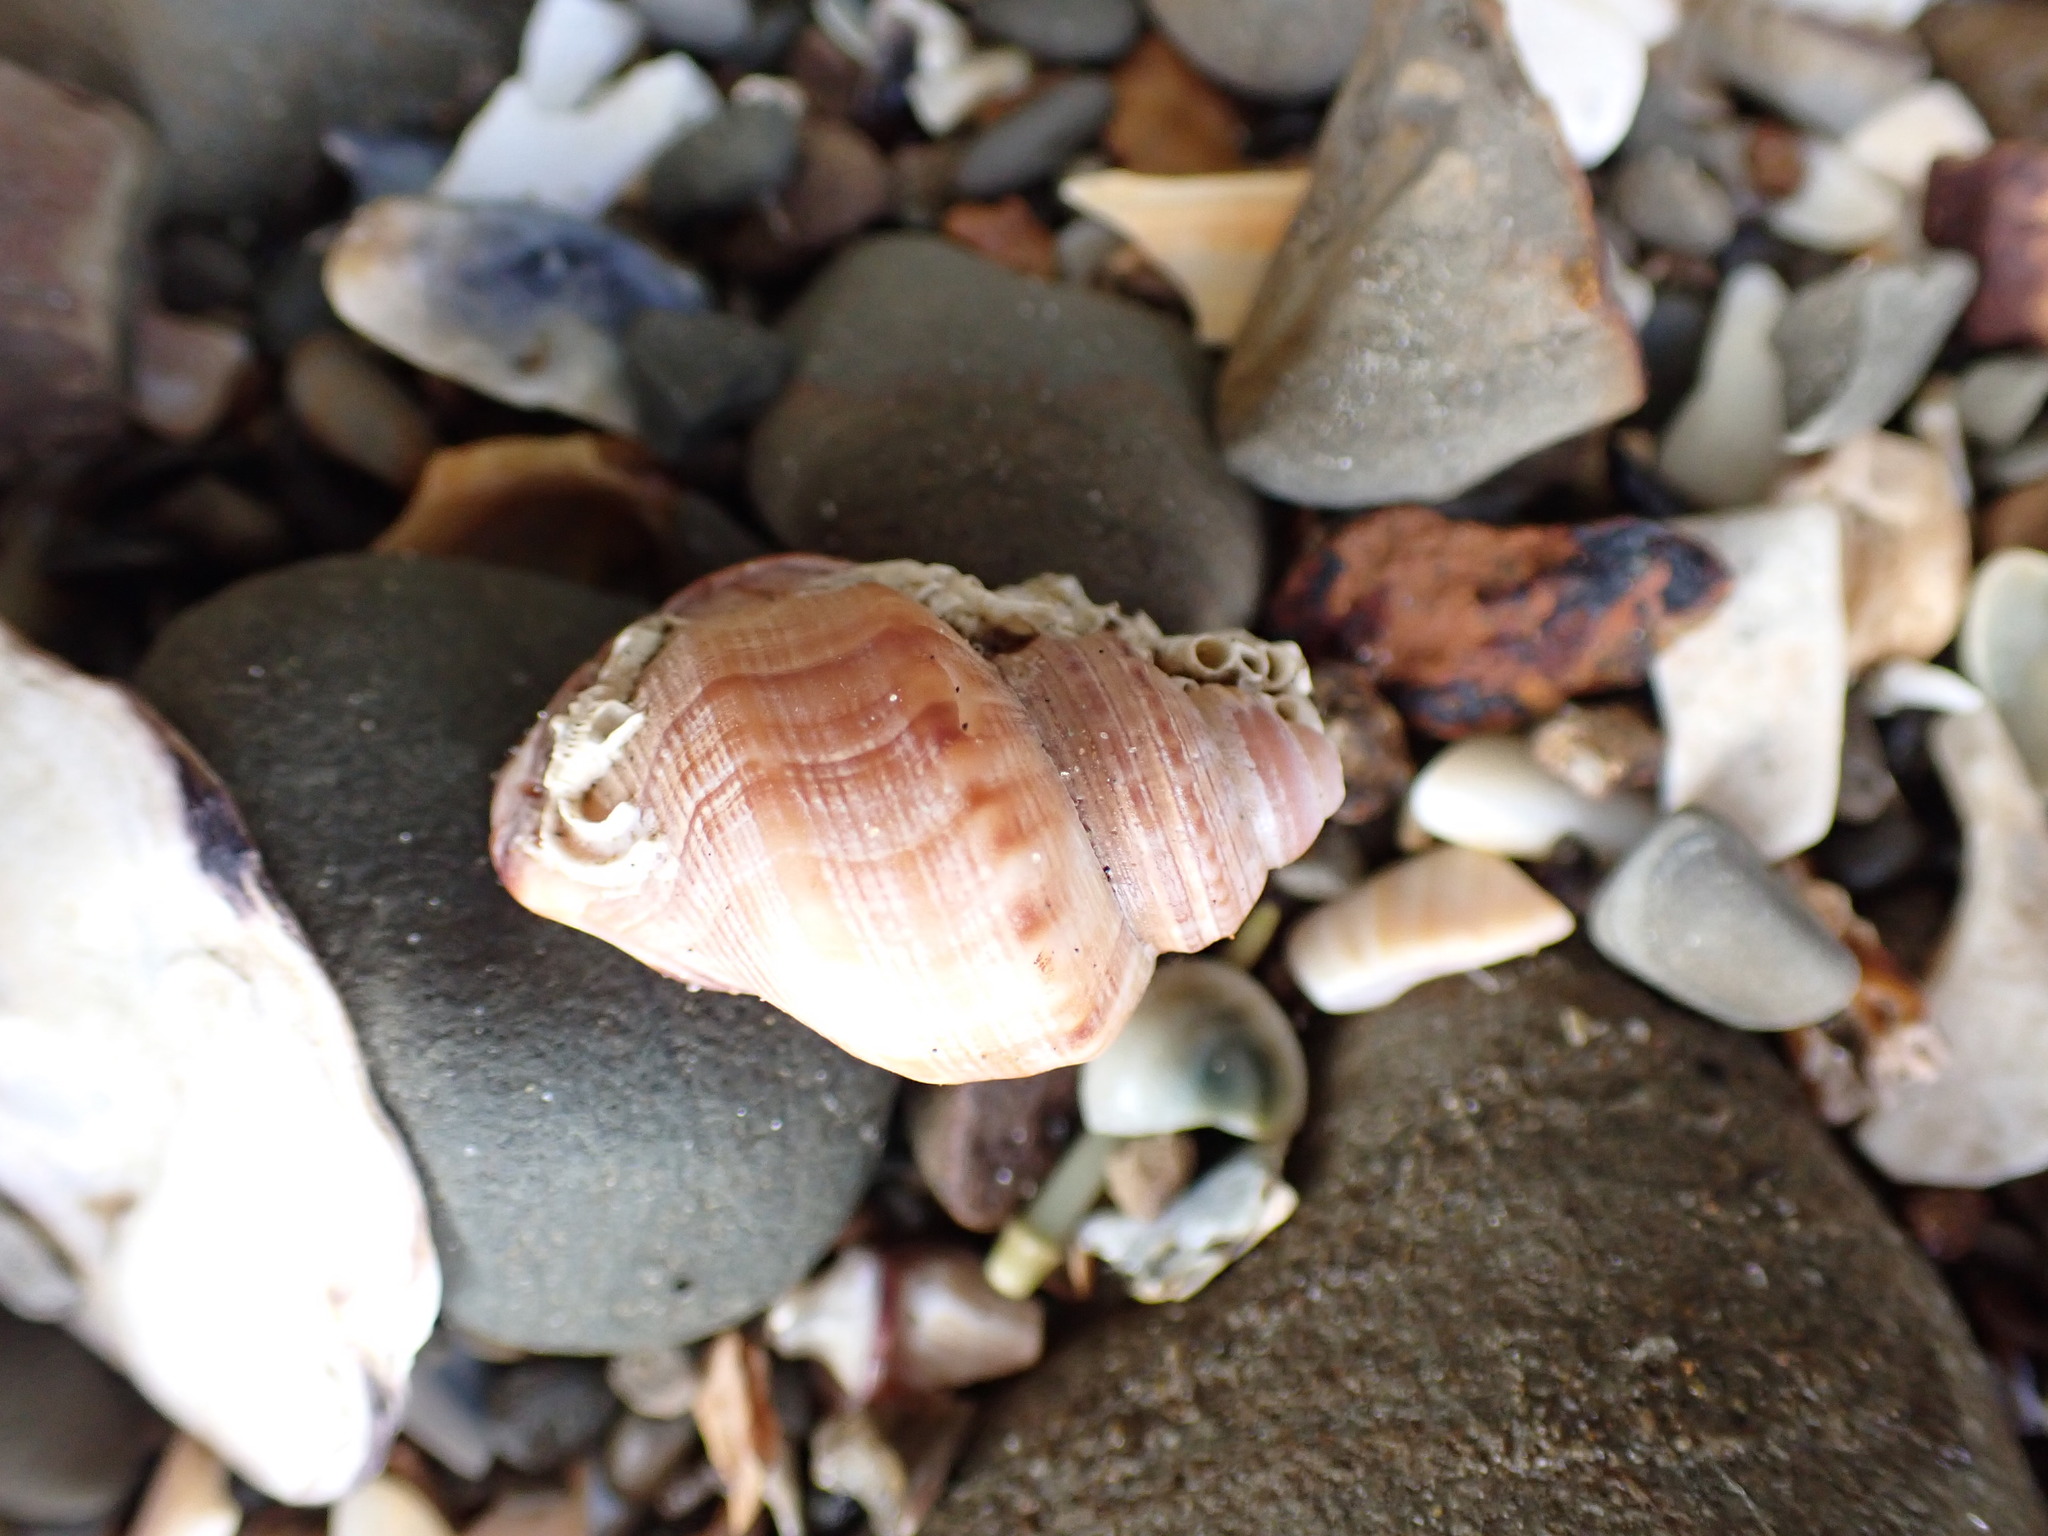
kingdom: Animalia
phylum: Mollusca
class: Gastropoda
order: Littorinimorpha
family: Struthiolariidae
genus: Pelicaria
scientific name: Pelicaria vermis
